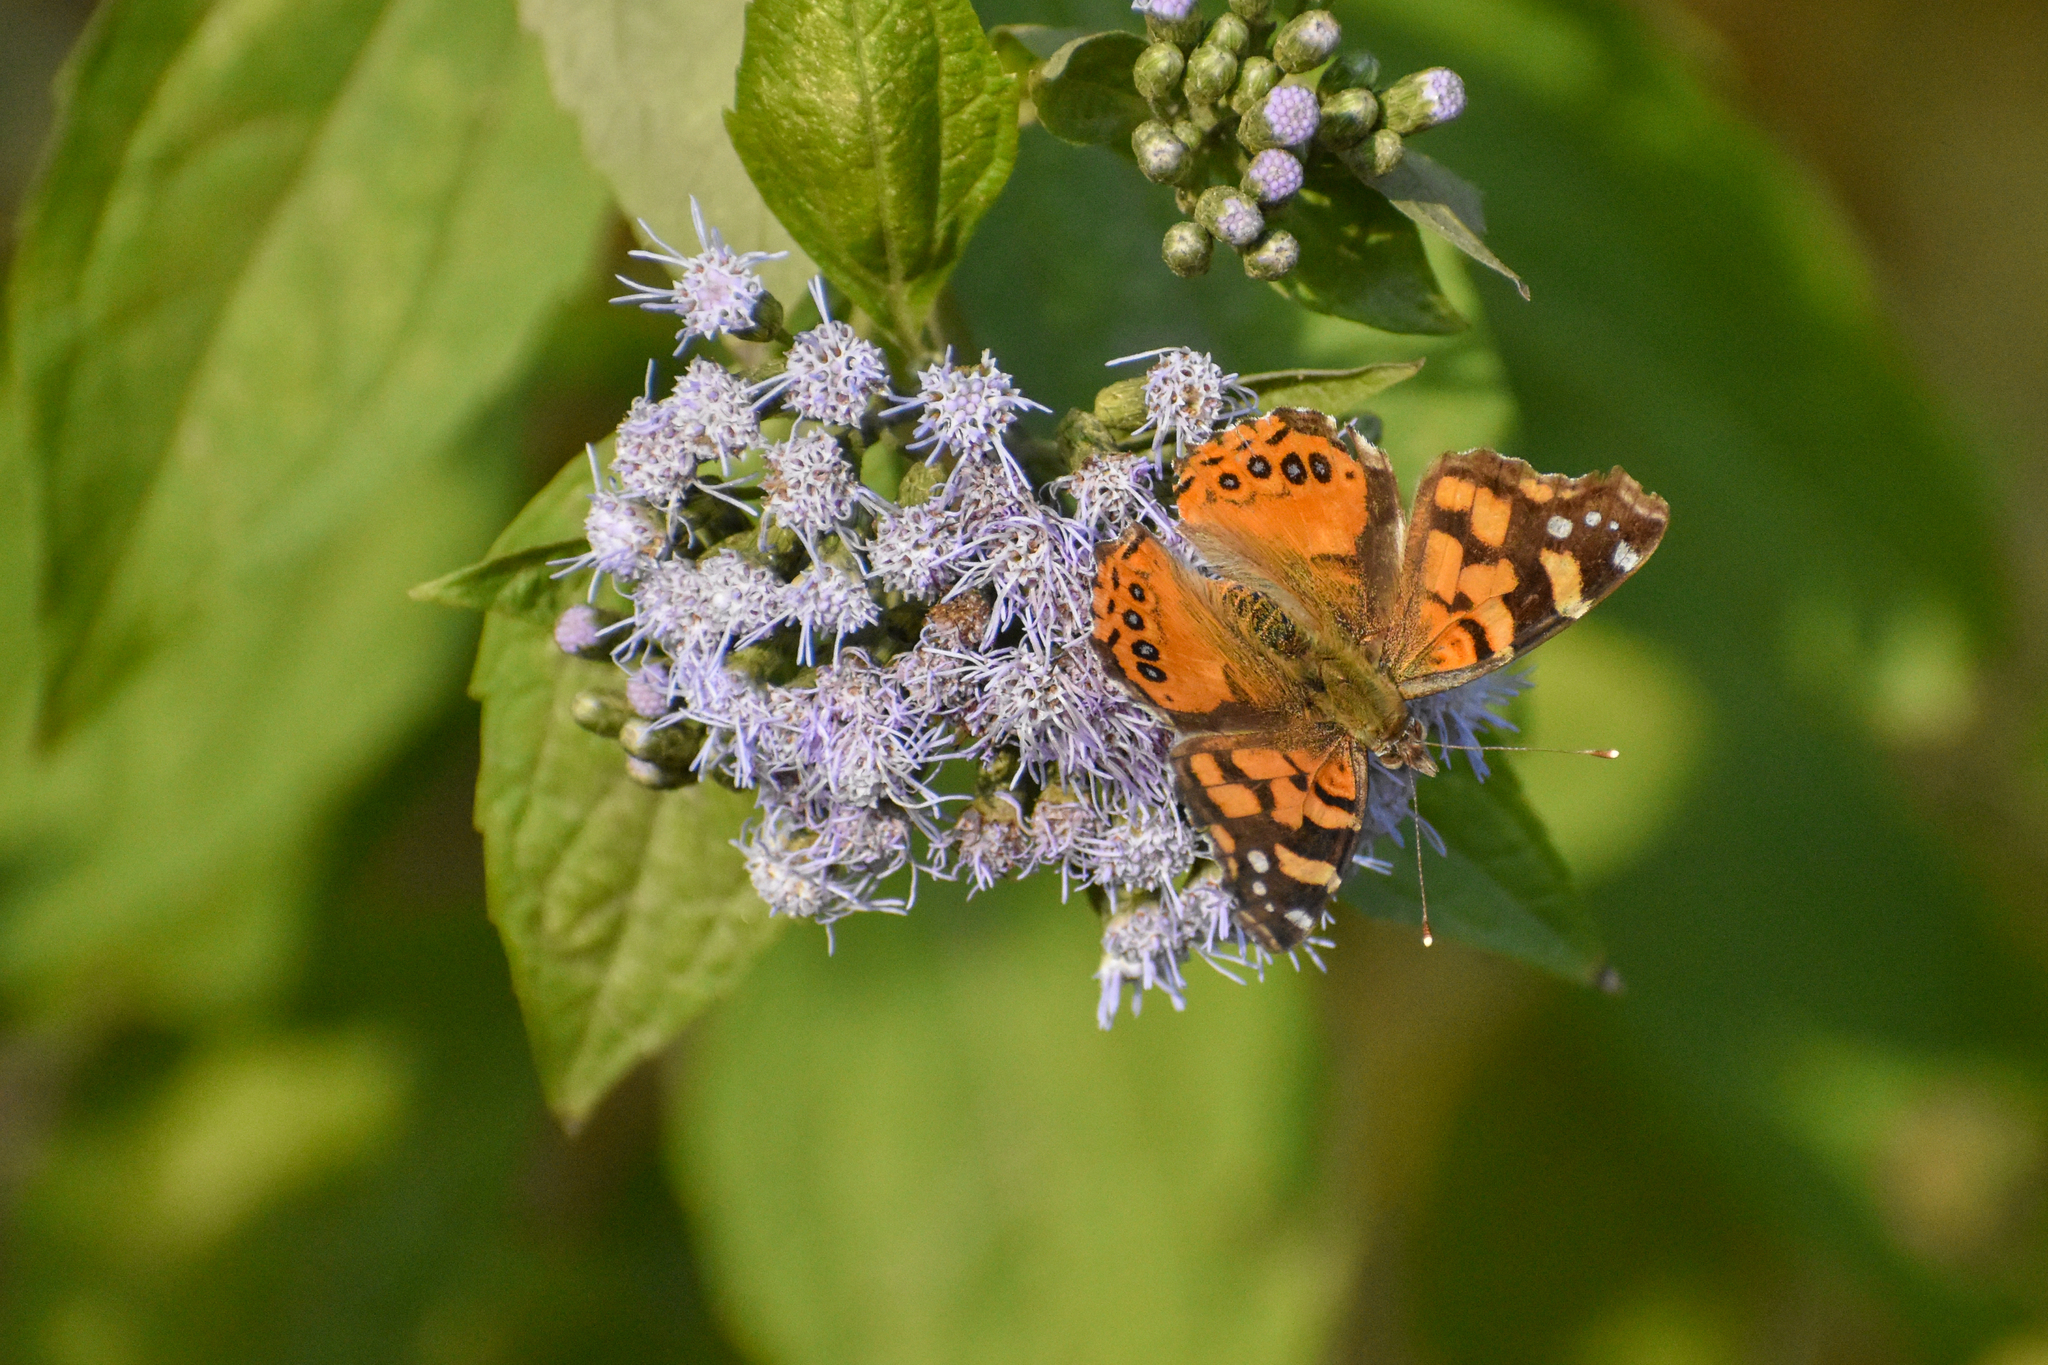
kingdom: Animalia
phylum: Arthropoda
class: Insecta
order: Lepidoptera
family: Nymphalidae
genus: Vanessa
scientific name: Vanessa carye
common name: Subtropical lady
